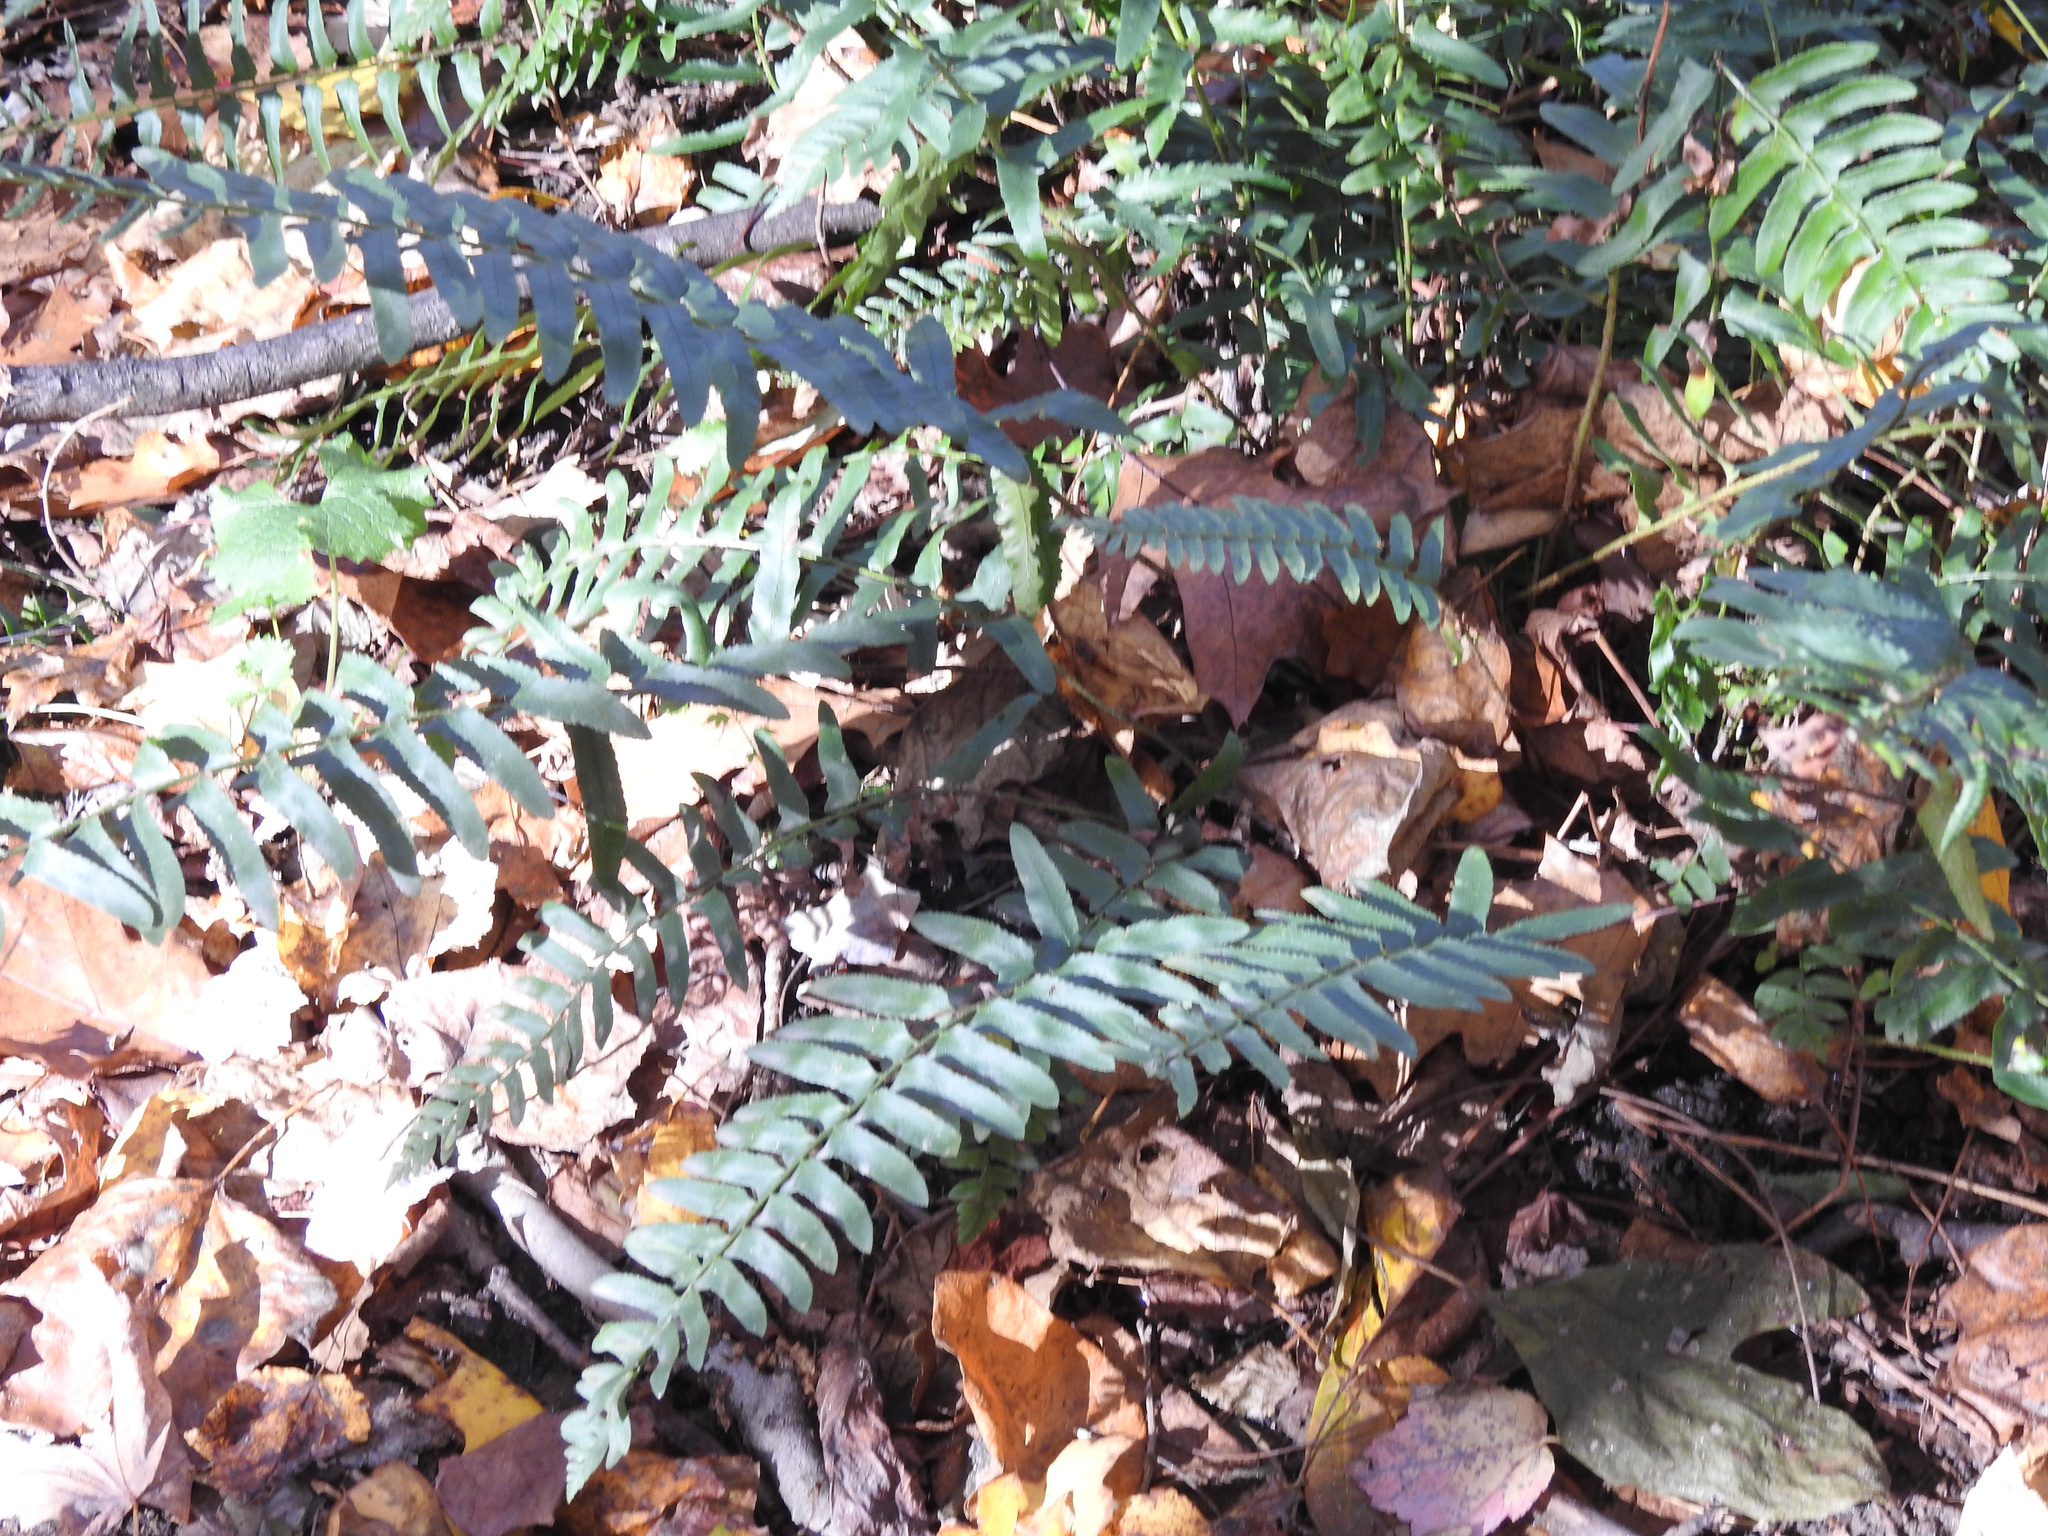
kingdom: Plantae
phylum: Tracheophyta
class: Polypodiopsida
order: Polypodiales
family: Dryopteridaceae
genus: Polystichum
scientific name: Polystichum acrostichoides
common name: Christmas fern
